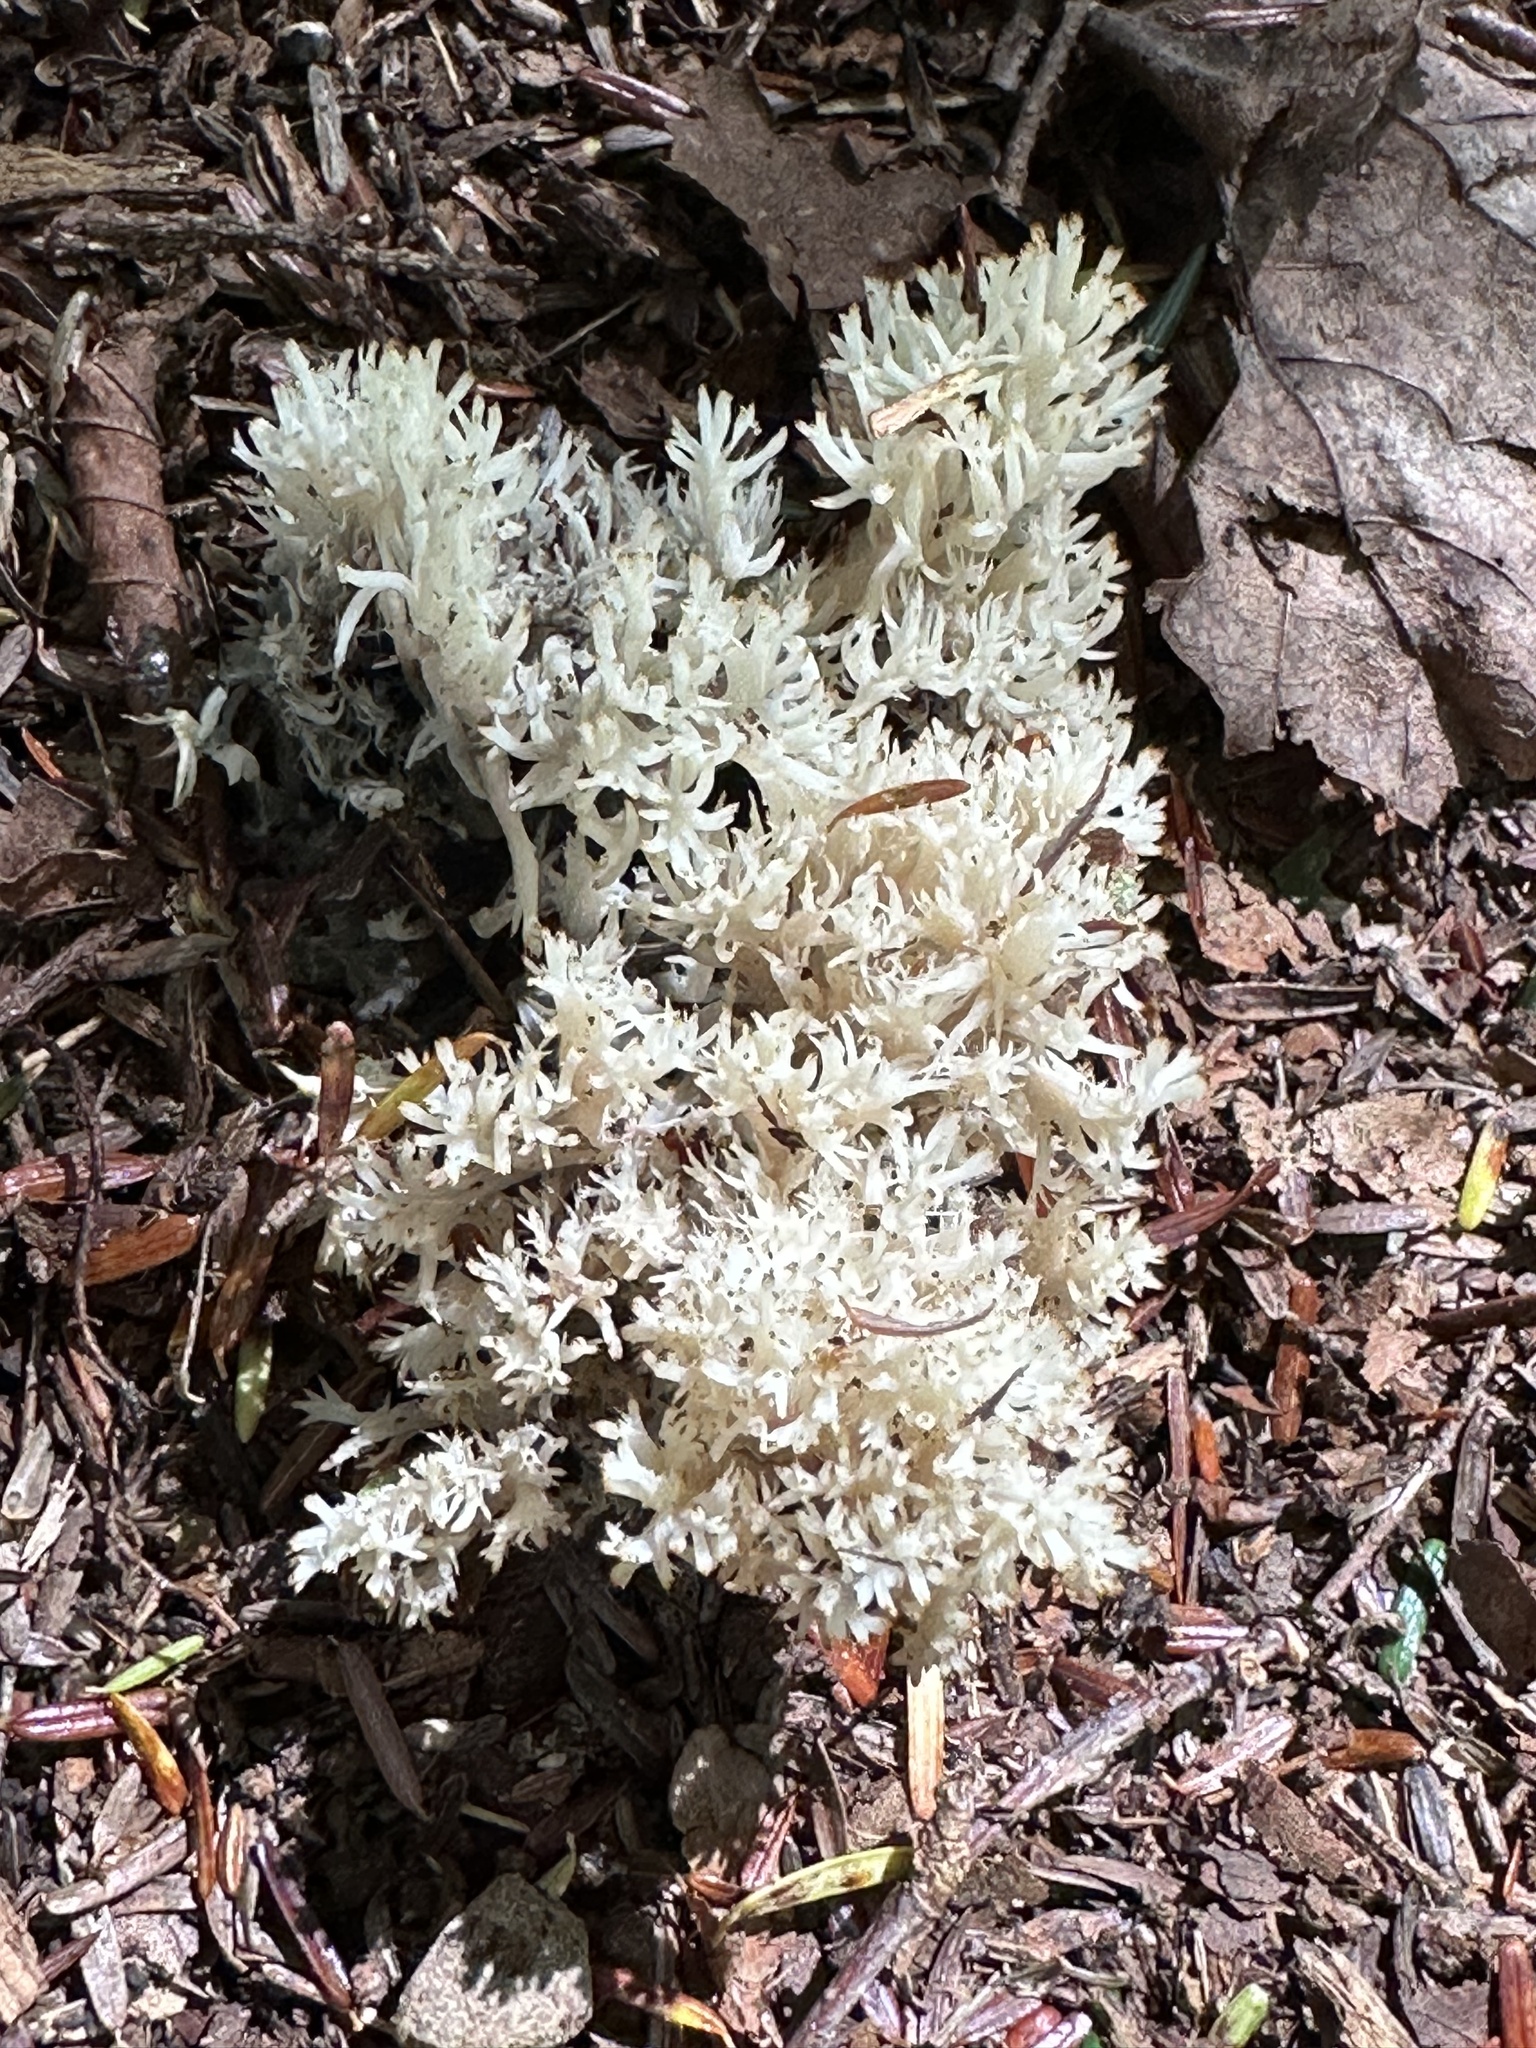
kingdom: Fungi
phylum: Basidiomycota
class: Agaricomycetes
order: Agaricales
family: Clavariaceae
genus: Ramariopsis
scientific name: Ramariopsis kunzei
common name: Ivory coral
